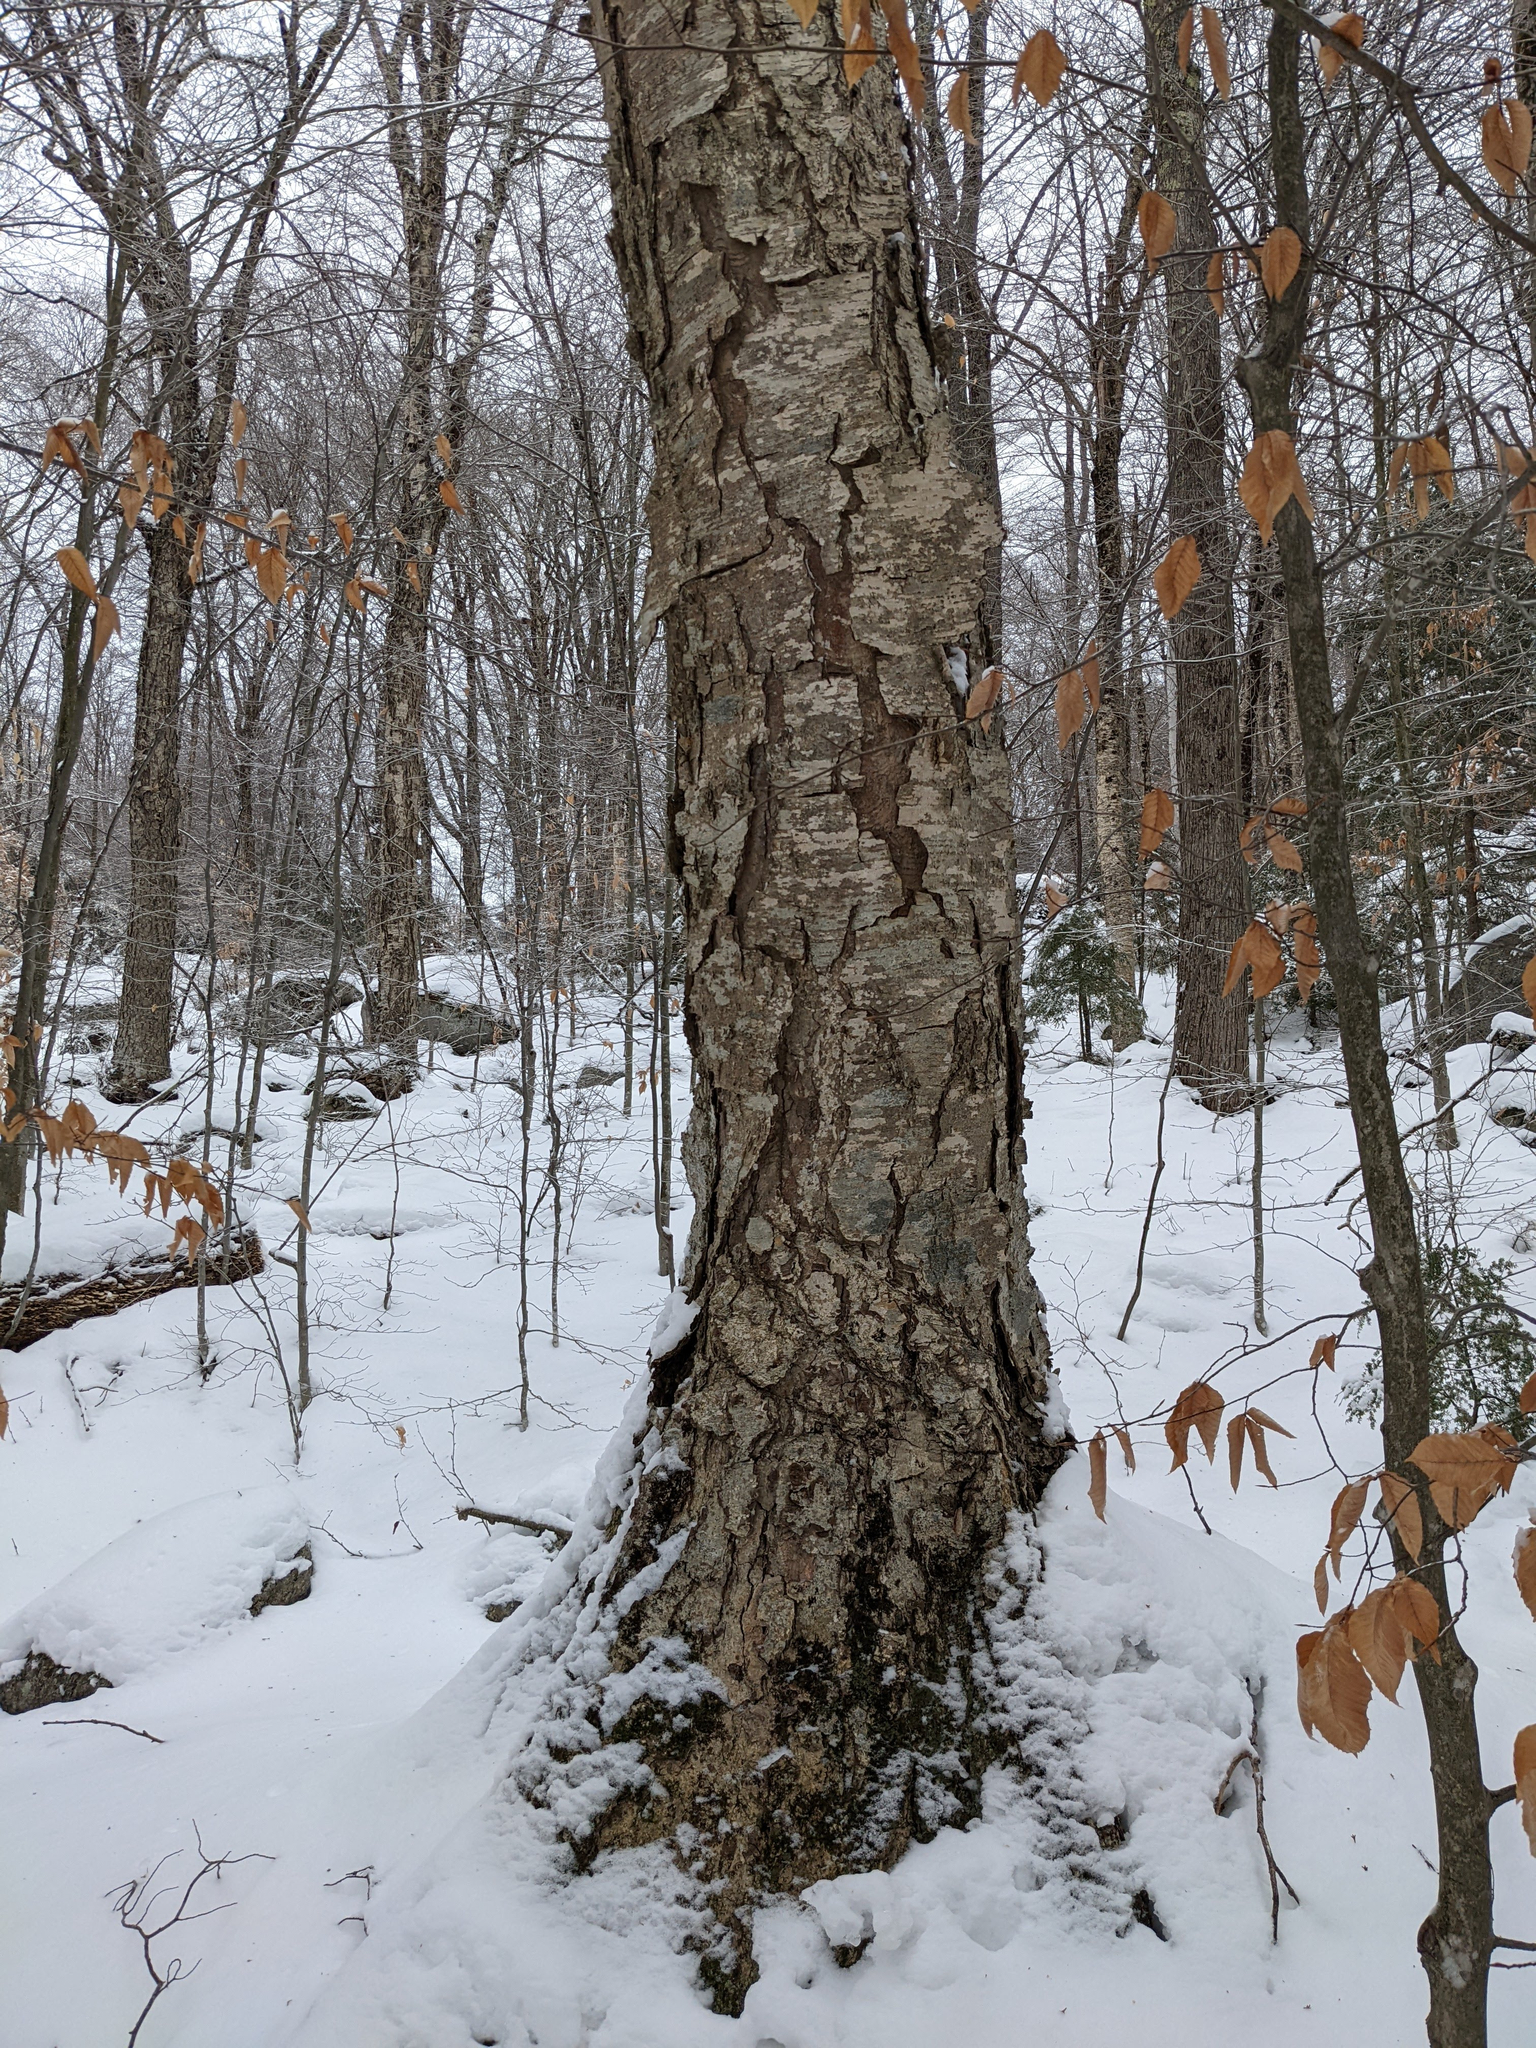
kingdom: Plantae
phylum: Tracheophyta
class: Magnoliopsida
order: Fagales
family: Betulaceae
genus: Betula
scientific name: Betula alleghaniensis
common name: Yellow birch
